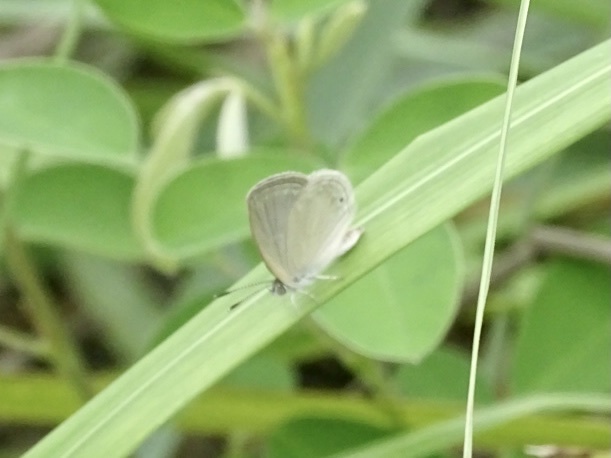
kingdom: Animalia
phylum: Arthropoda
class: Insecta
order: Lepidoptera
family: Lycaenidae
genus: Cupido
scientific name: Cupido nisa
